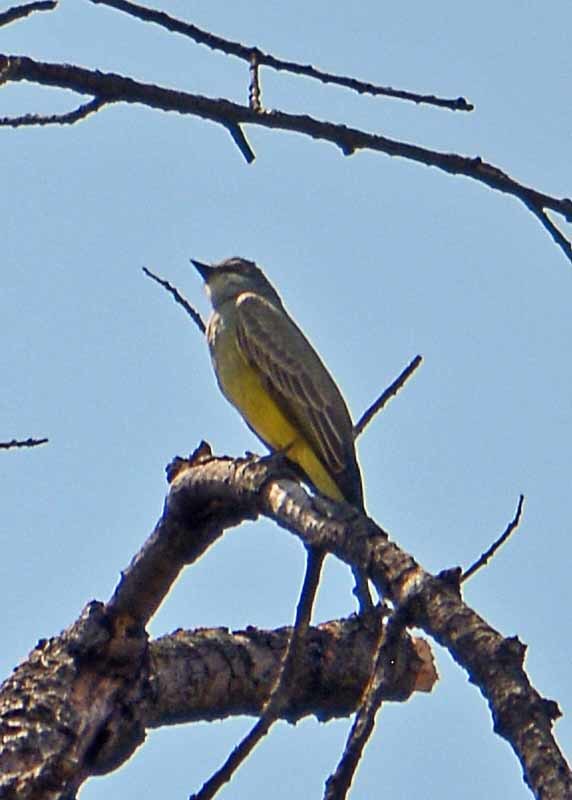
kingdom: Animalia
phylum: Chordata
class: Aves
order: Passeriformes
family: Tyrannidae
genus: Tyrannus
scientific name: Tyrannus vociferans
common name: Cassin's kingbird
